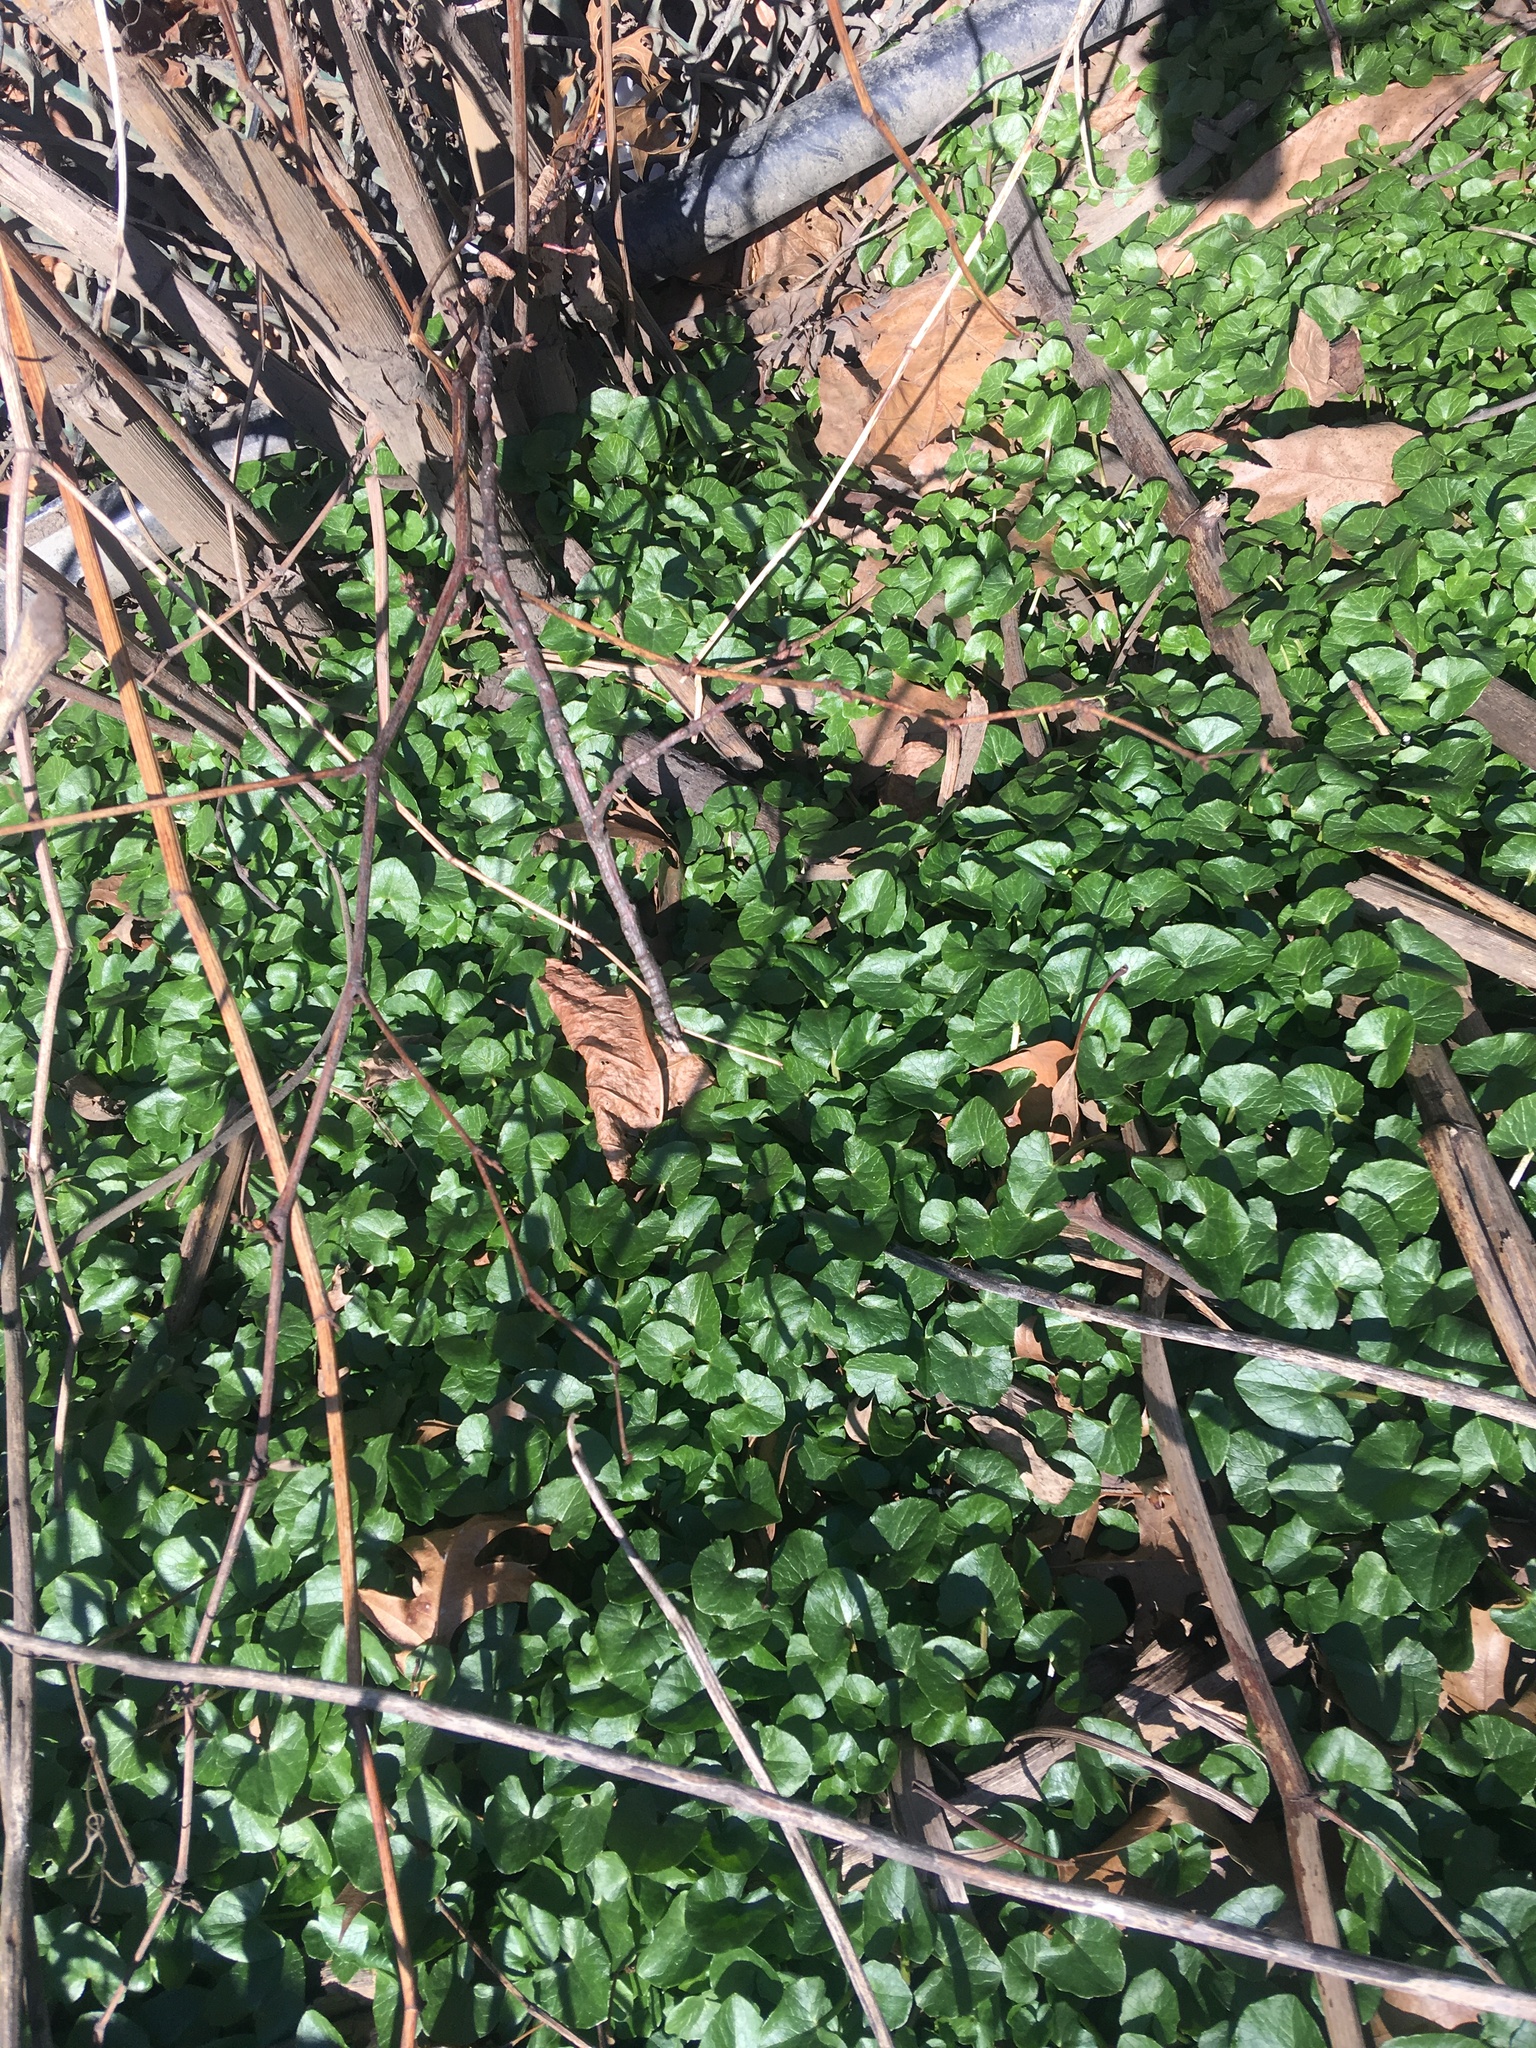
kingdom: Plantae
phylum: Tracheophyta
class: Magnoliopsida
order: Ranunculales
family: Ranunculaceae
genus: Ficaria
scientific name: Ficaria verna
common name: Lesser celandine
